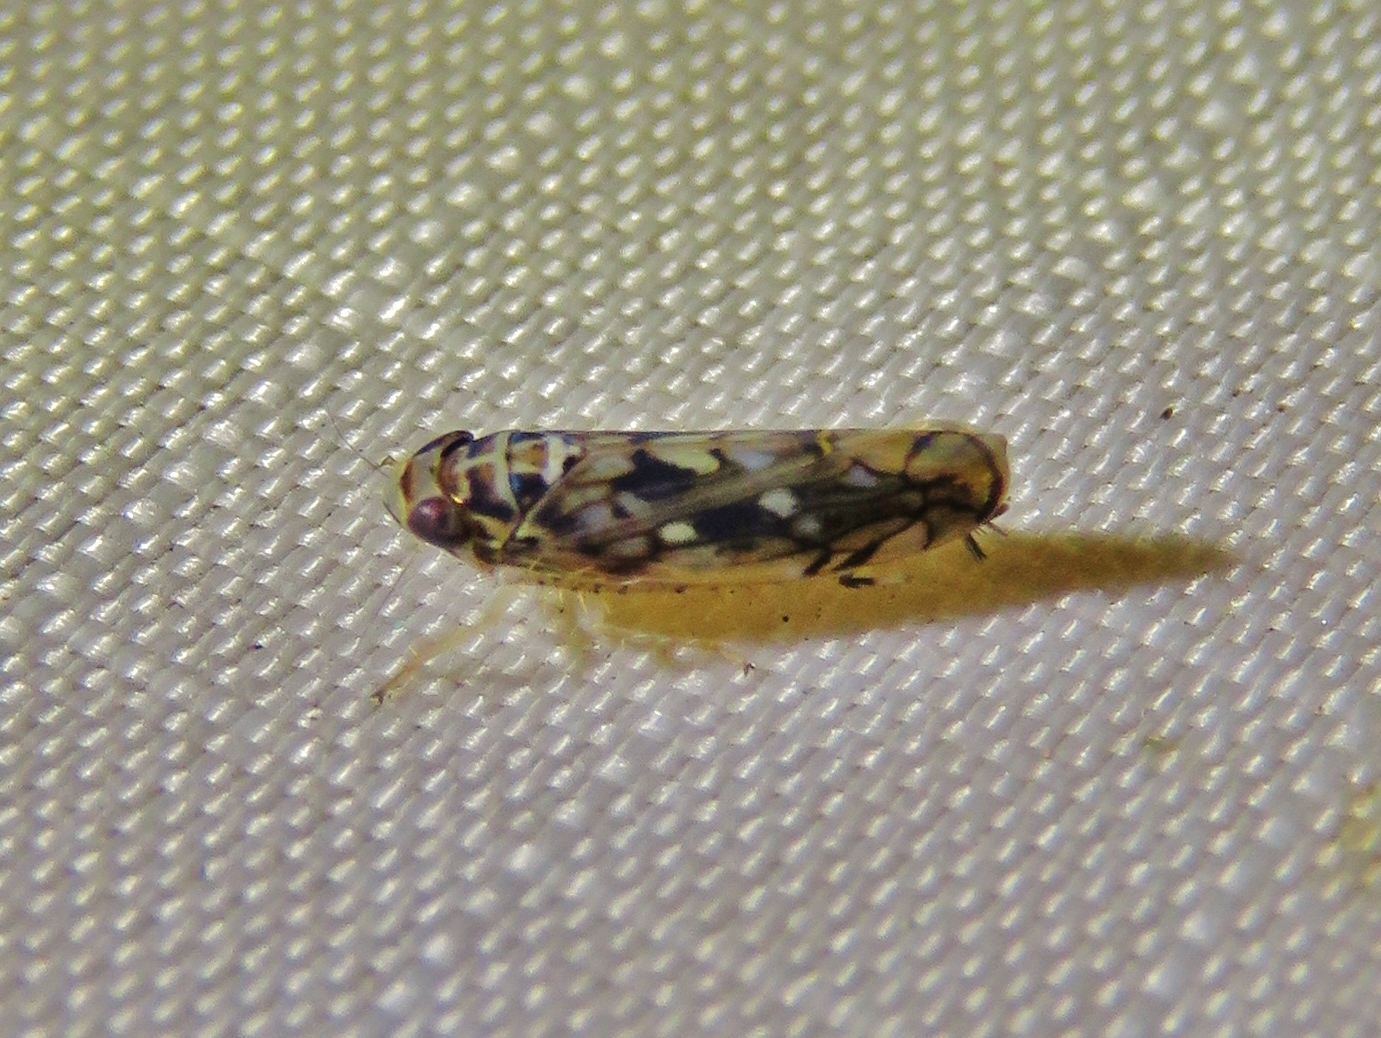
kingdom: Animalia
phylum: Arthropoda
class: Insecta
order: Hemiptera
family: Cicadellidae
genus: Scaphoideus
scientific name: Scaphoideus melanotus
